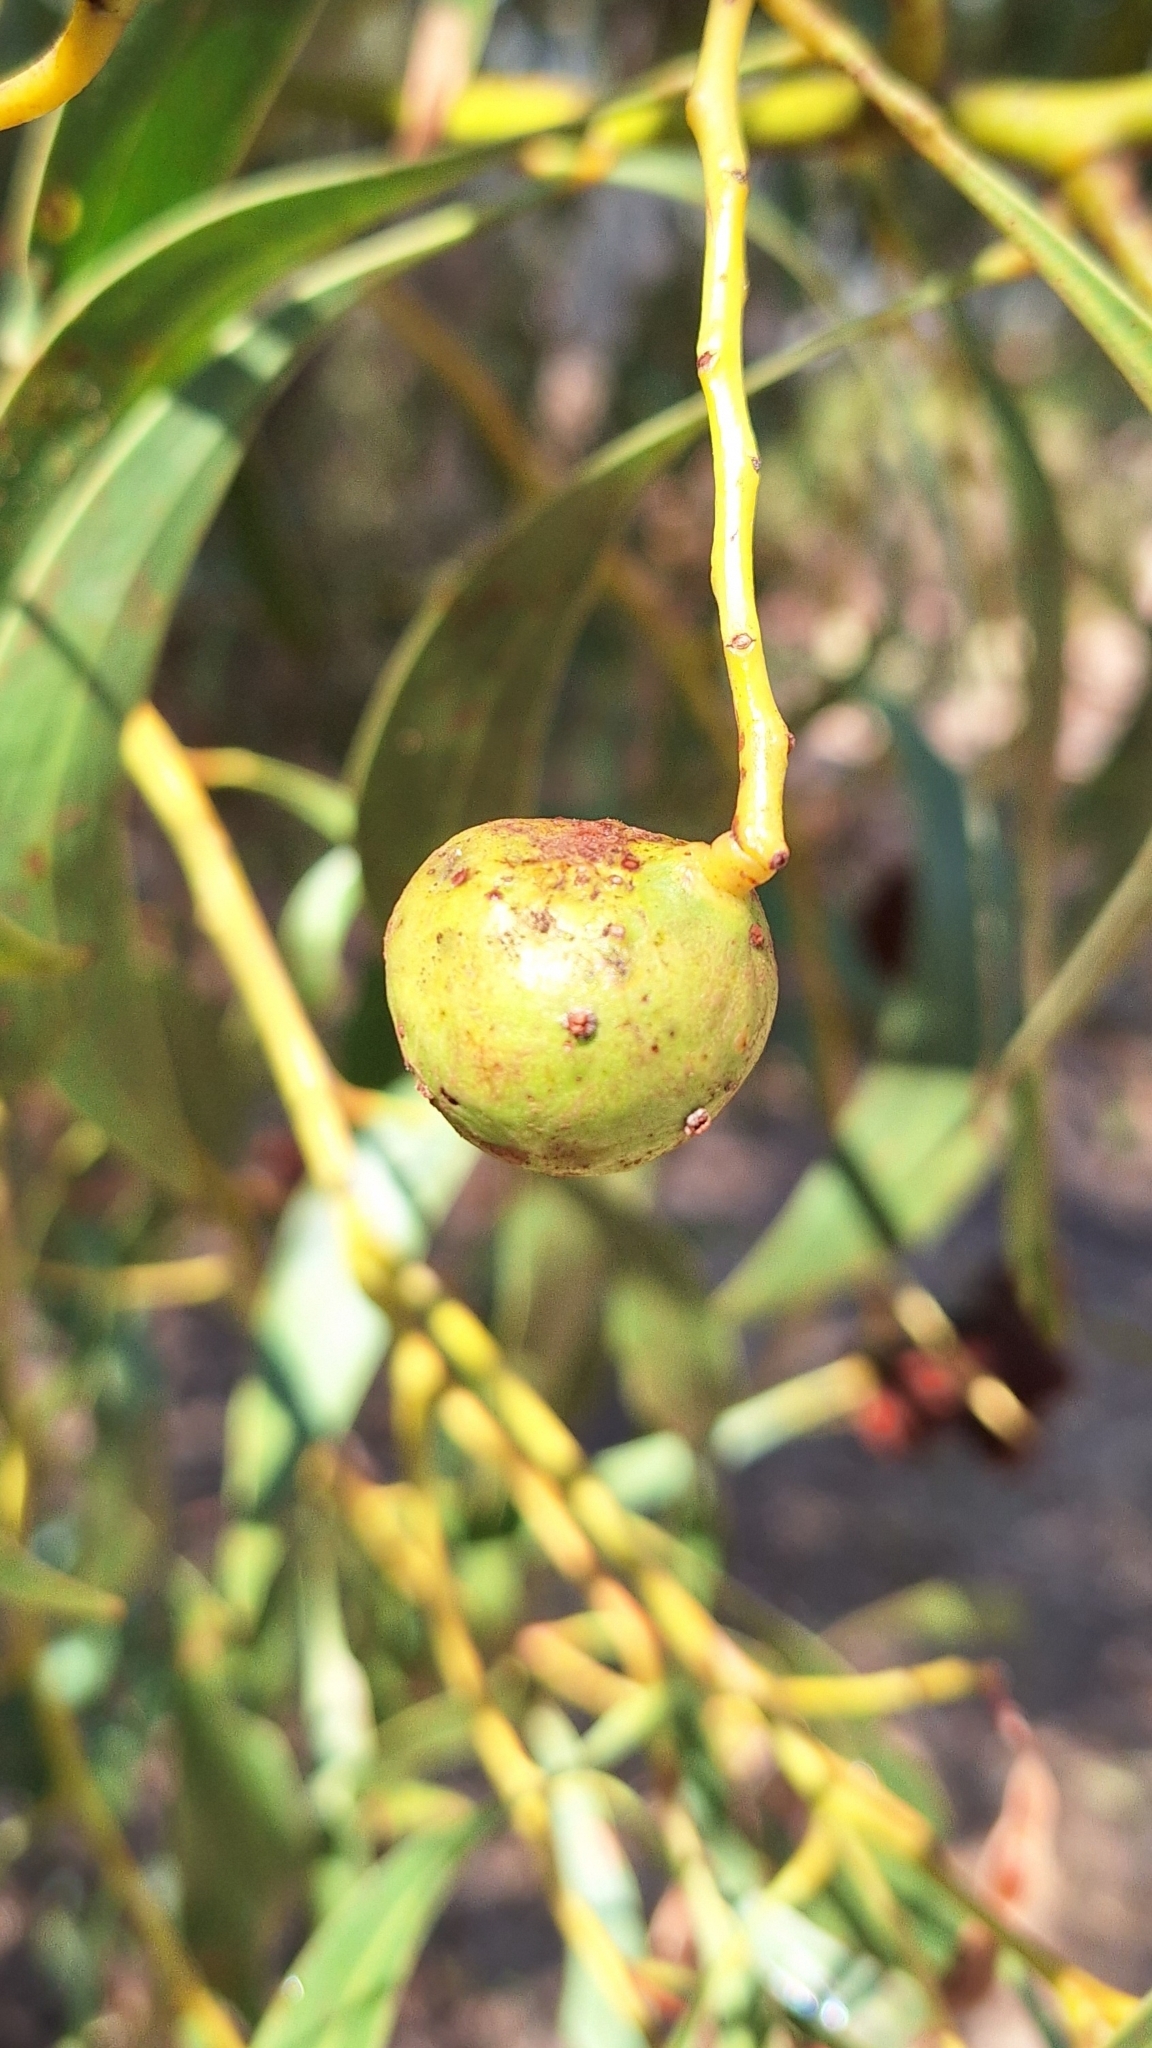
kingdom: Animalia
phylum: Arthropoda
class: Insecta
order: Hymenoptera
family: Pteromalidae
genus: Trichilogaster
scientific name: Trichilogaster signiventris
